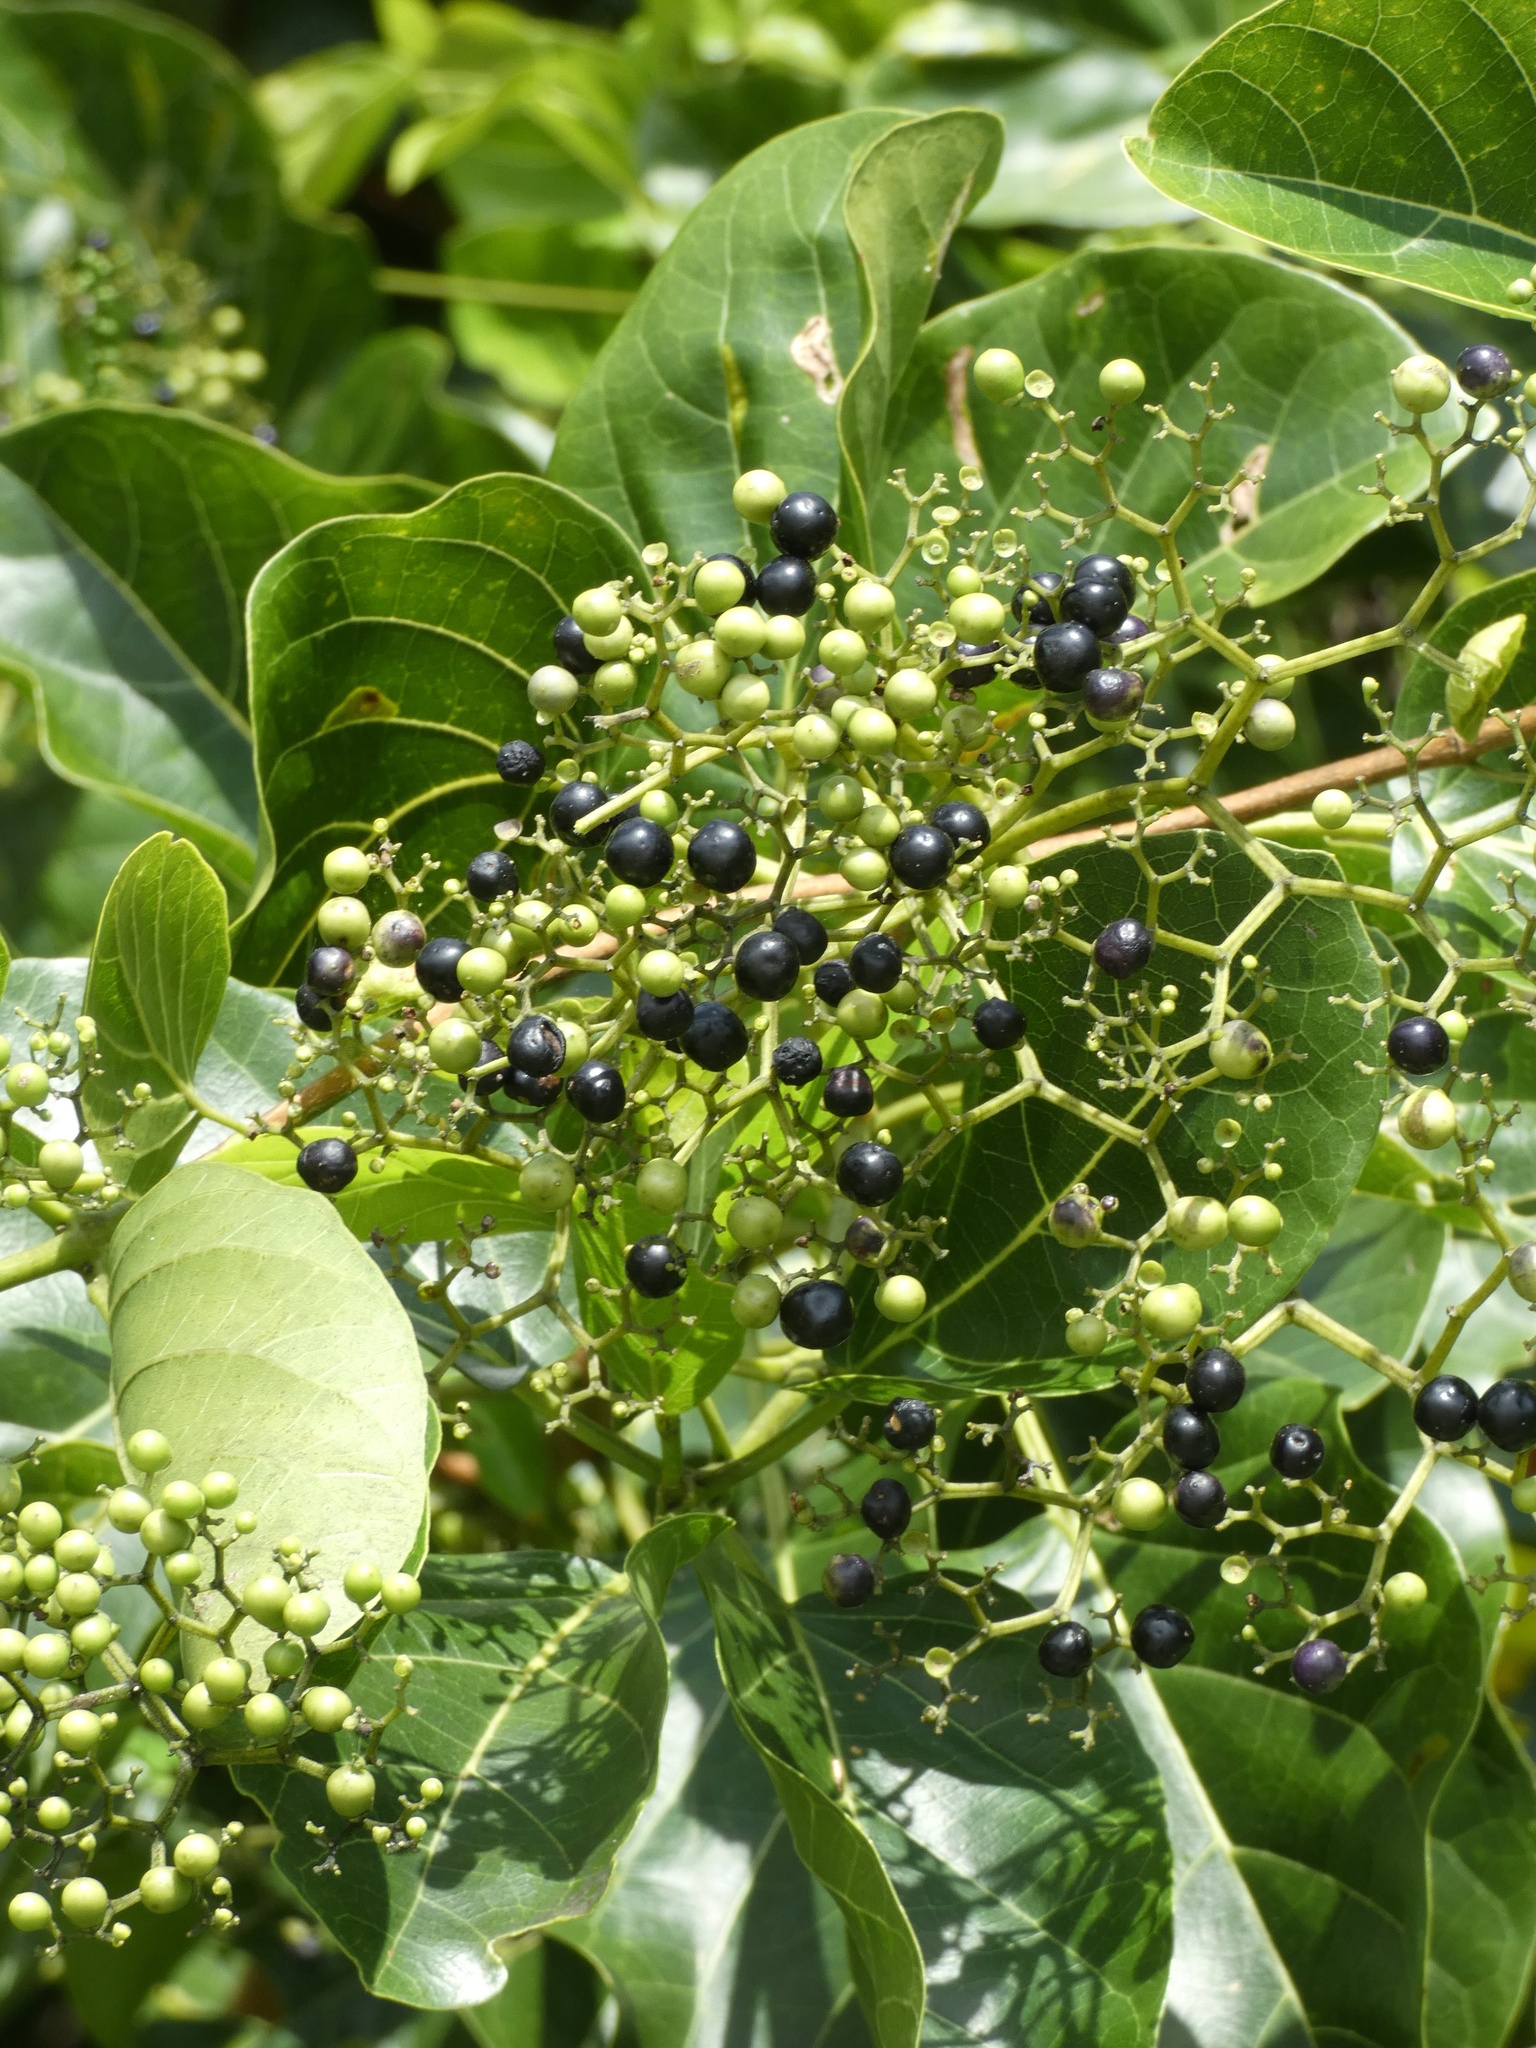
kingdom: Plantae
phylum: Tracheophyta
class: Magnoliopsida
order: Lamiales
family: Lamiaceae
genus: Premna
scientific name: Premna serratifolia
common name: Bastard guelder
